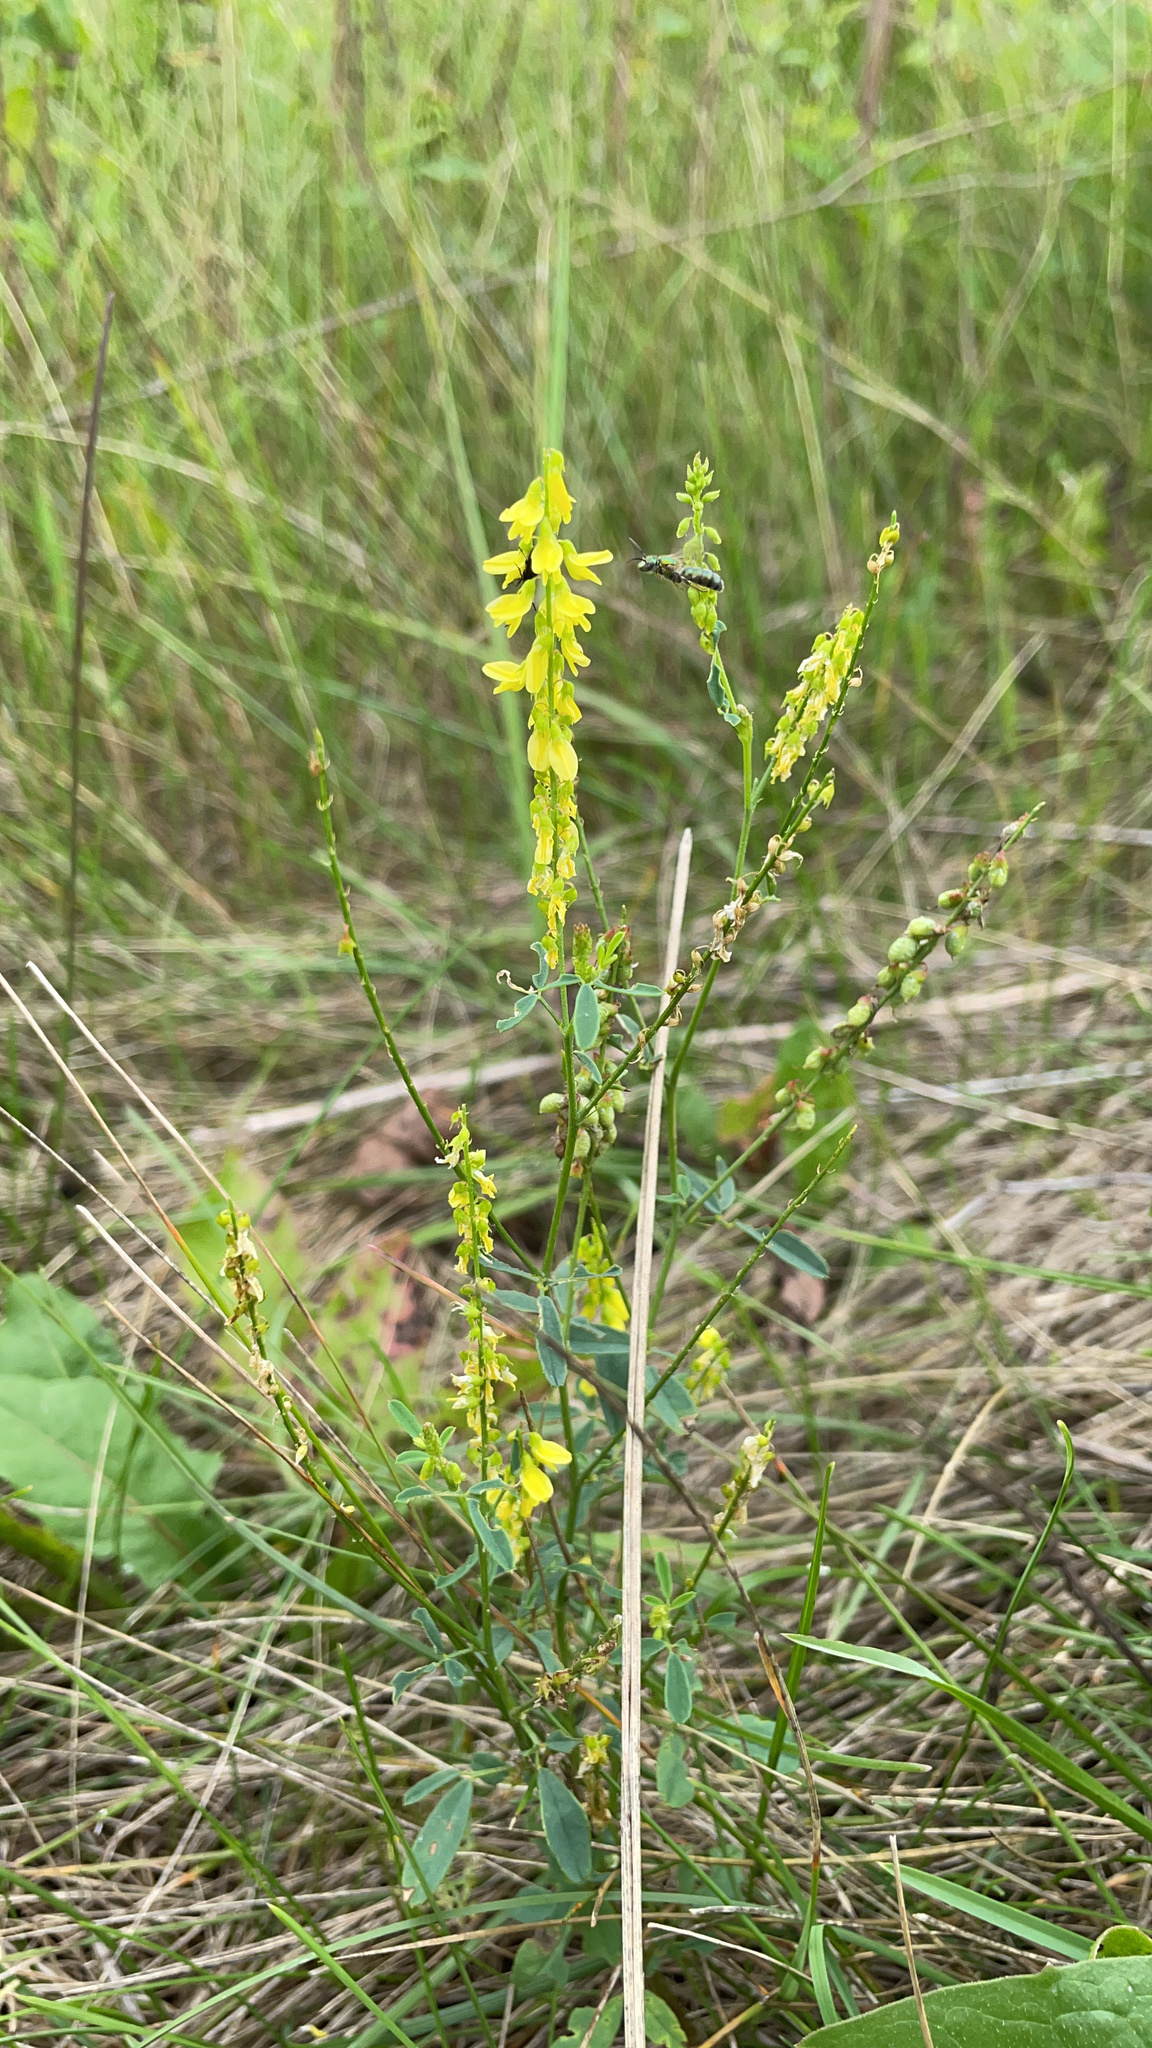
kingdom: Plantae
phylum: Tracheophyta
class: Magnoliopsida
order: Fabales
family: Fabaceae
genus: Melilotus
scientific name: Melilotus officinalis
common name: Sweetclover
